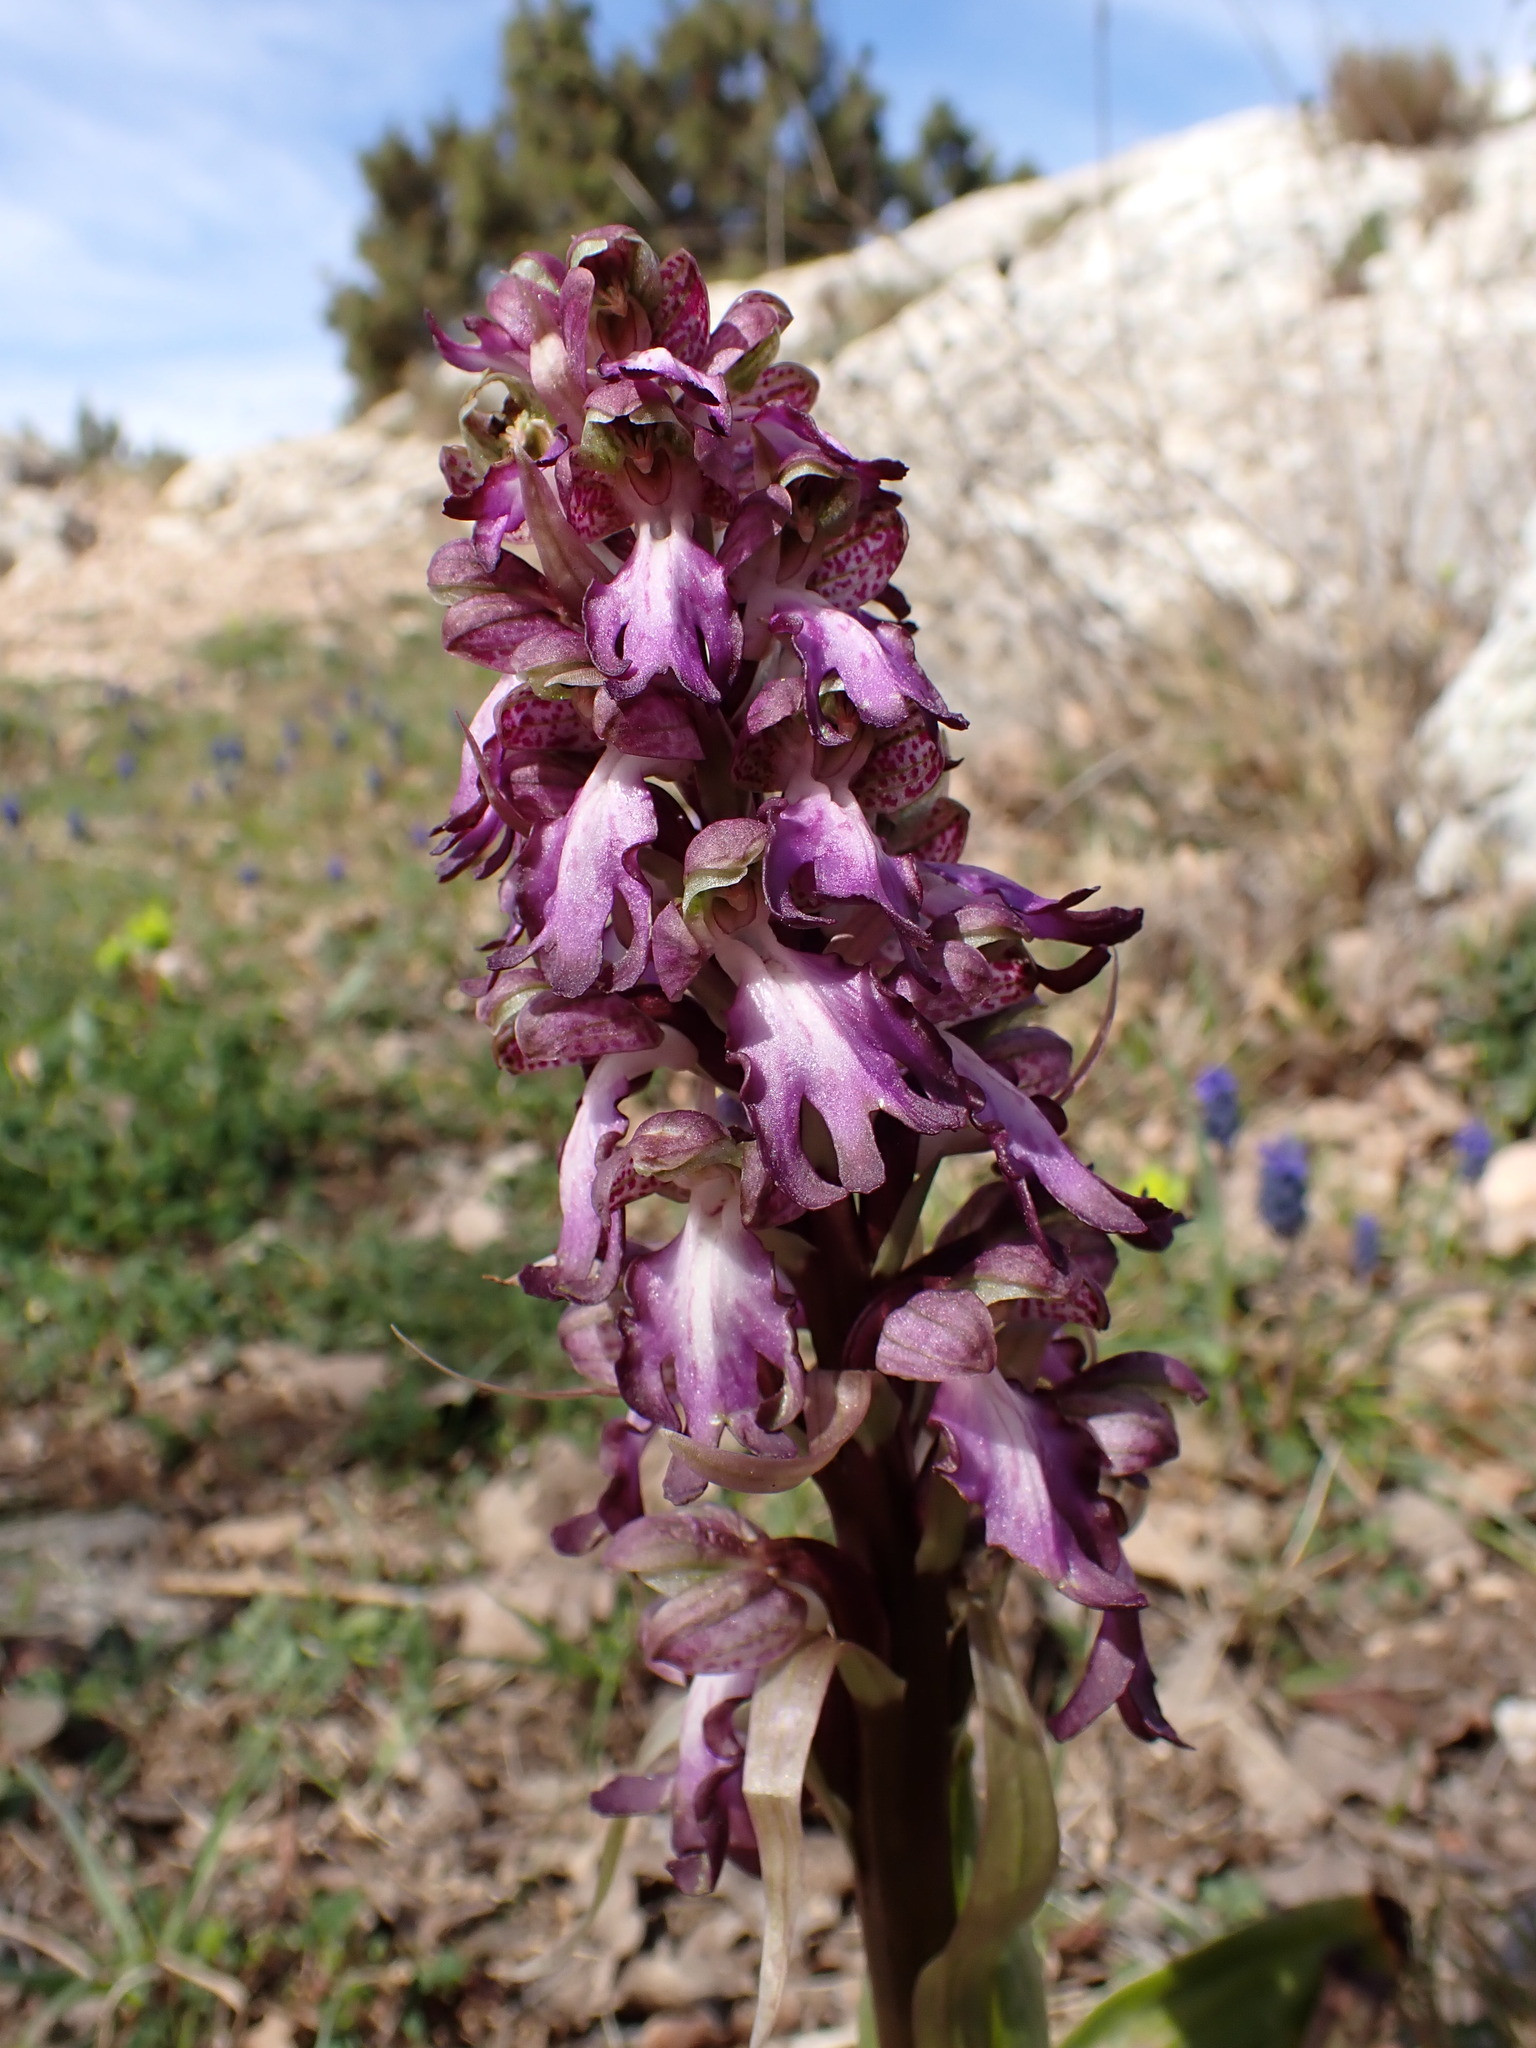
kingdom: Plantae
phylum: Tracheophyta
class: Liliopsida
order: Asparagales
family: Orchidaceae
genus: Himantoglossum
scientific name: Himantoglossum robertianum
